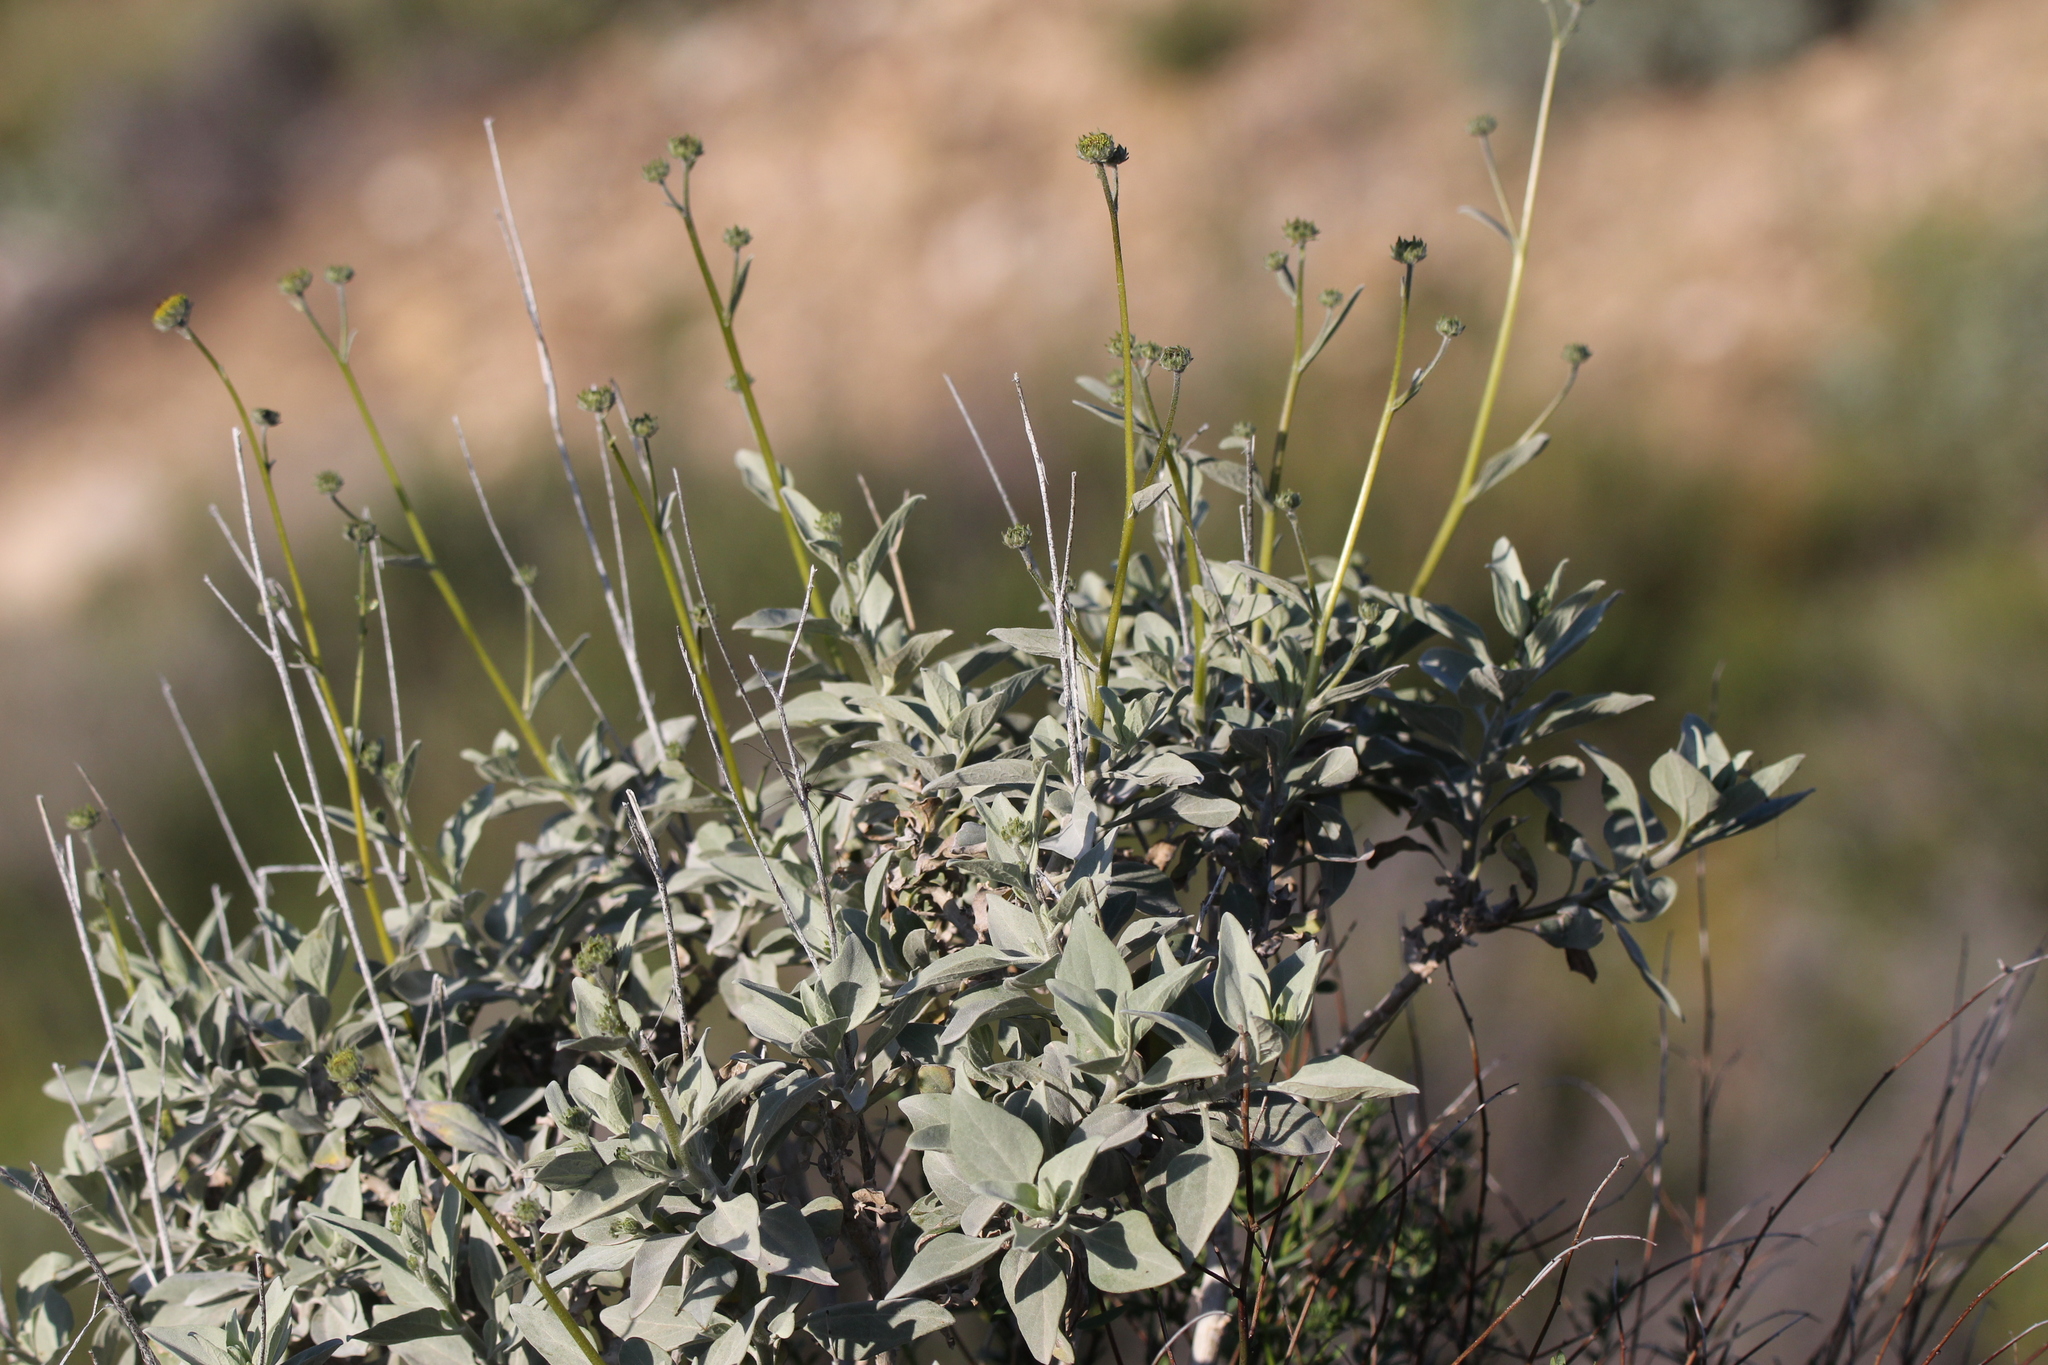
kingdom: Plantae
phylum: Tracheophyta
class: Magnoliopsida
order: Asterales
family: Asteraceae
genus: Encelia
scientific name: Encelia farinosa
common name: Brittlebush
